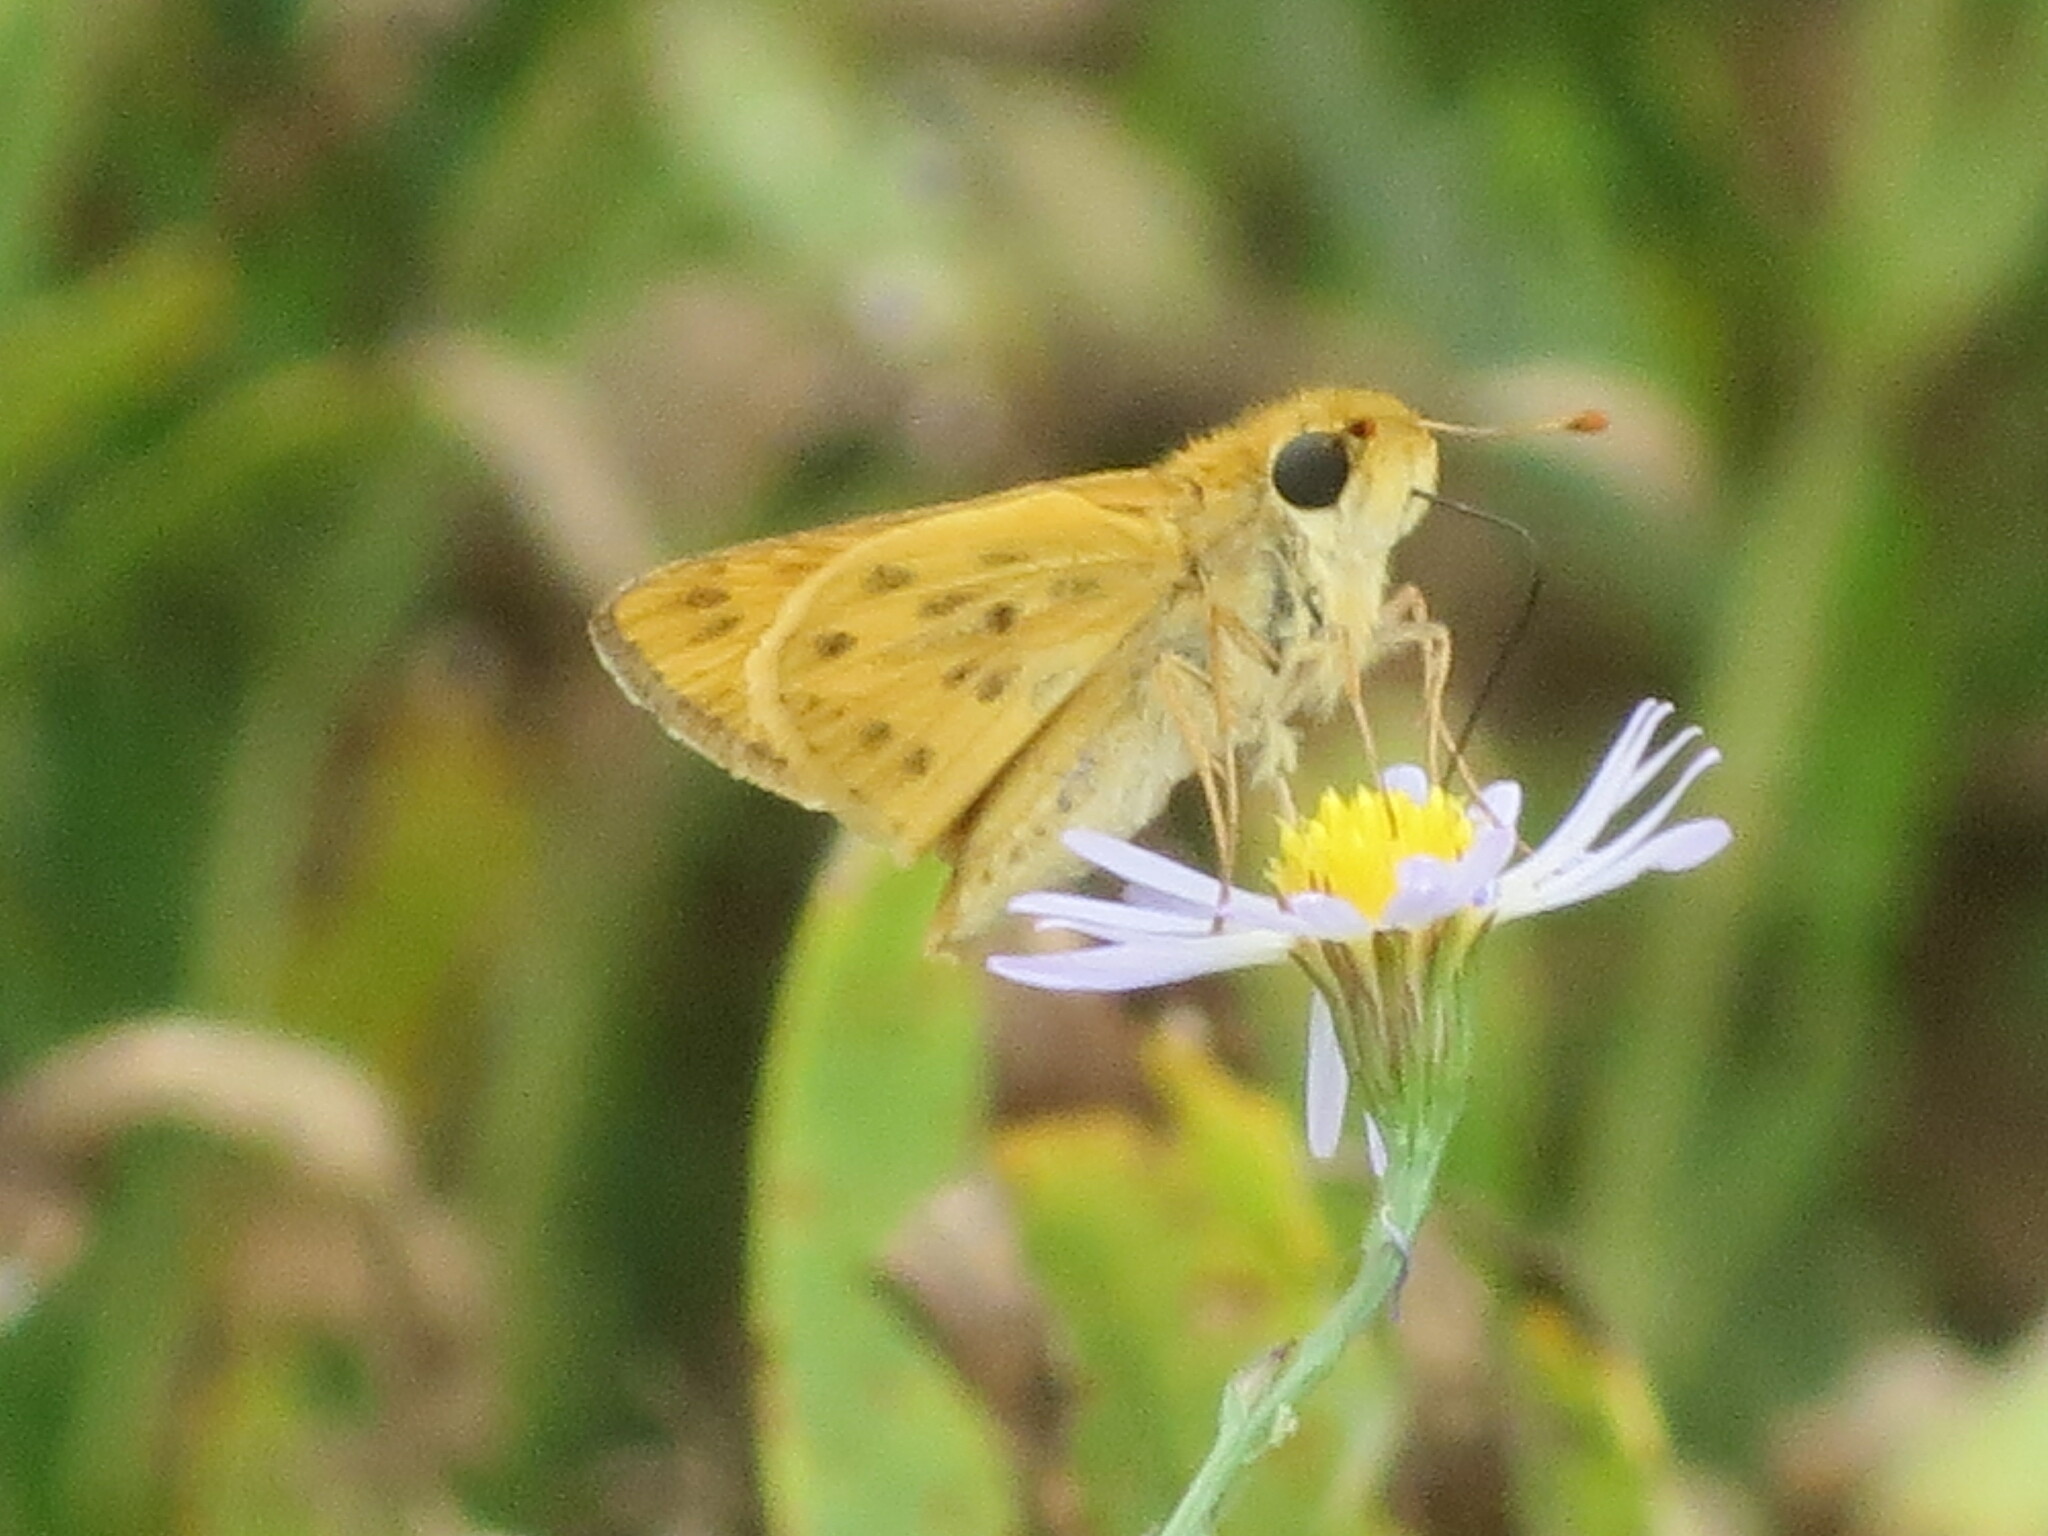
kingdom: Animalia
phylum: Arthropoda
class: Insecta
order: Lepidoptera
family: Hesperiidae
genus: Hylephila
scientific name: Hylephila phyleus
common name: Fiery skipper
